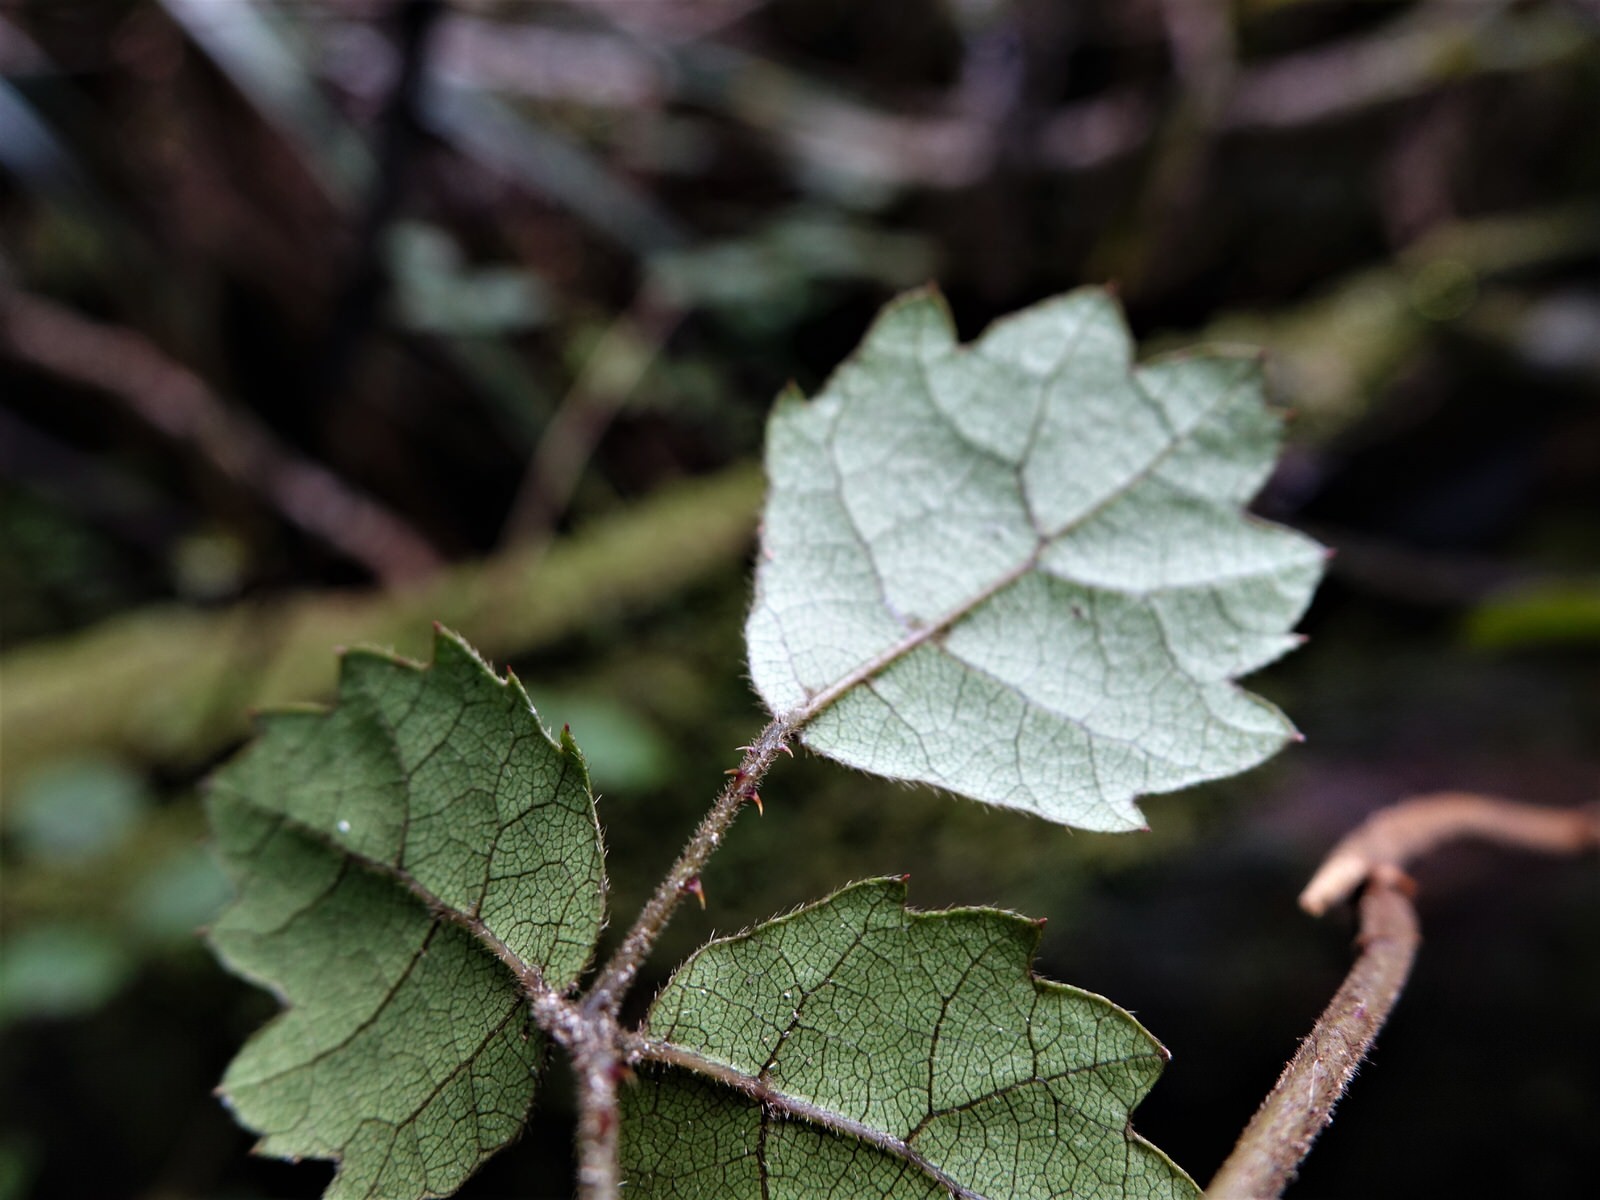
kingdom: Plantae
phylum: Tracheophyta
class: Magnoliopsida
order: Rosales
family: Rosaceae
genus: Rubus
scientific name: Rubus australis
